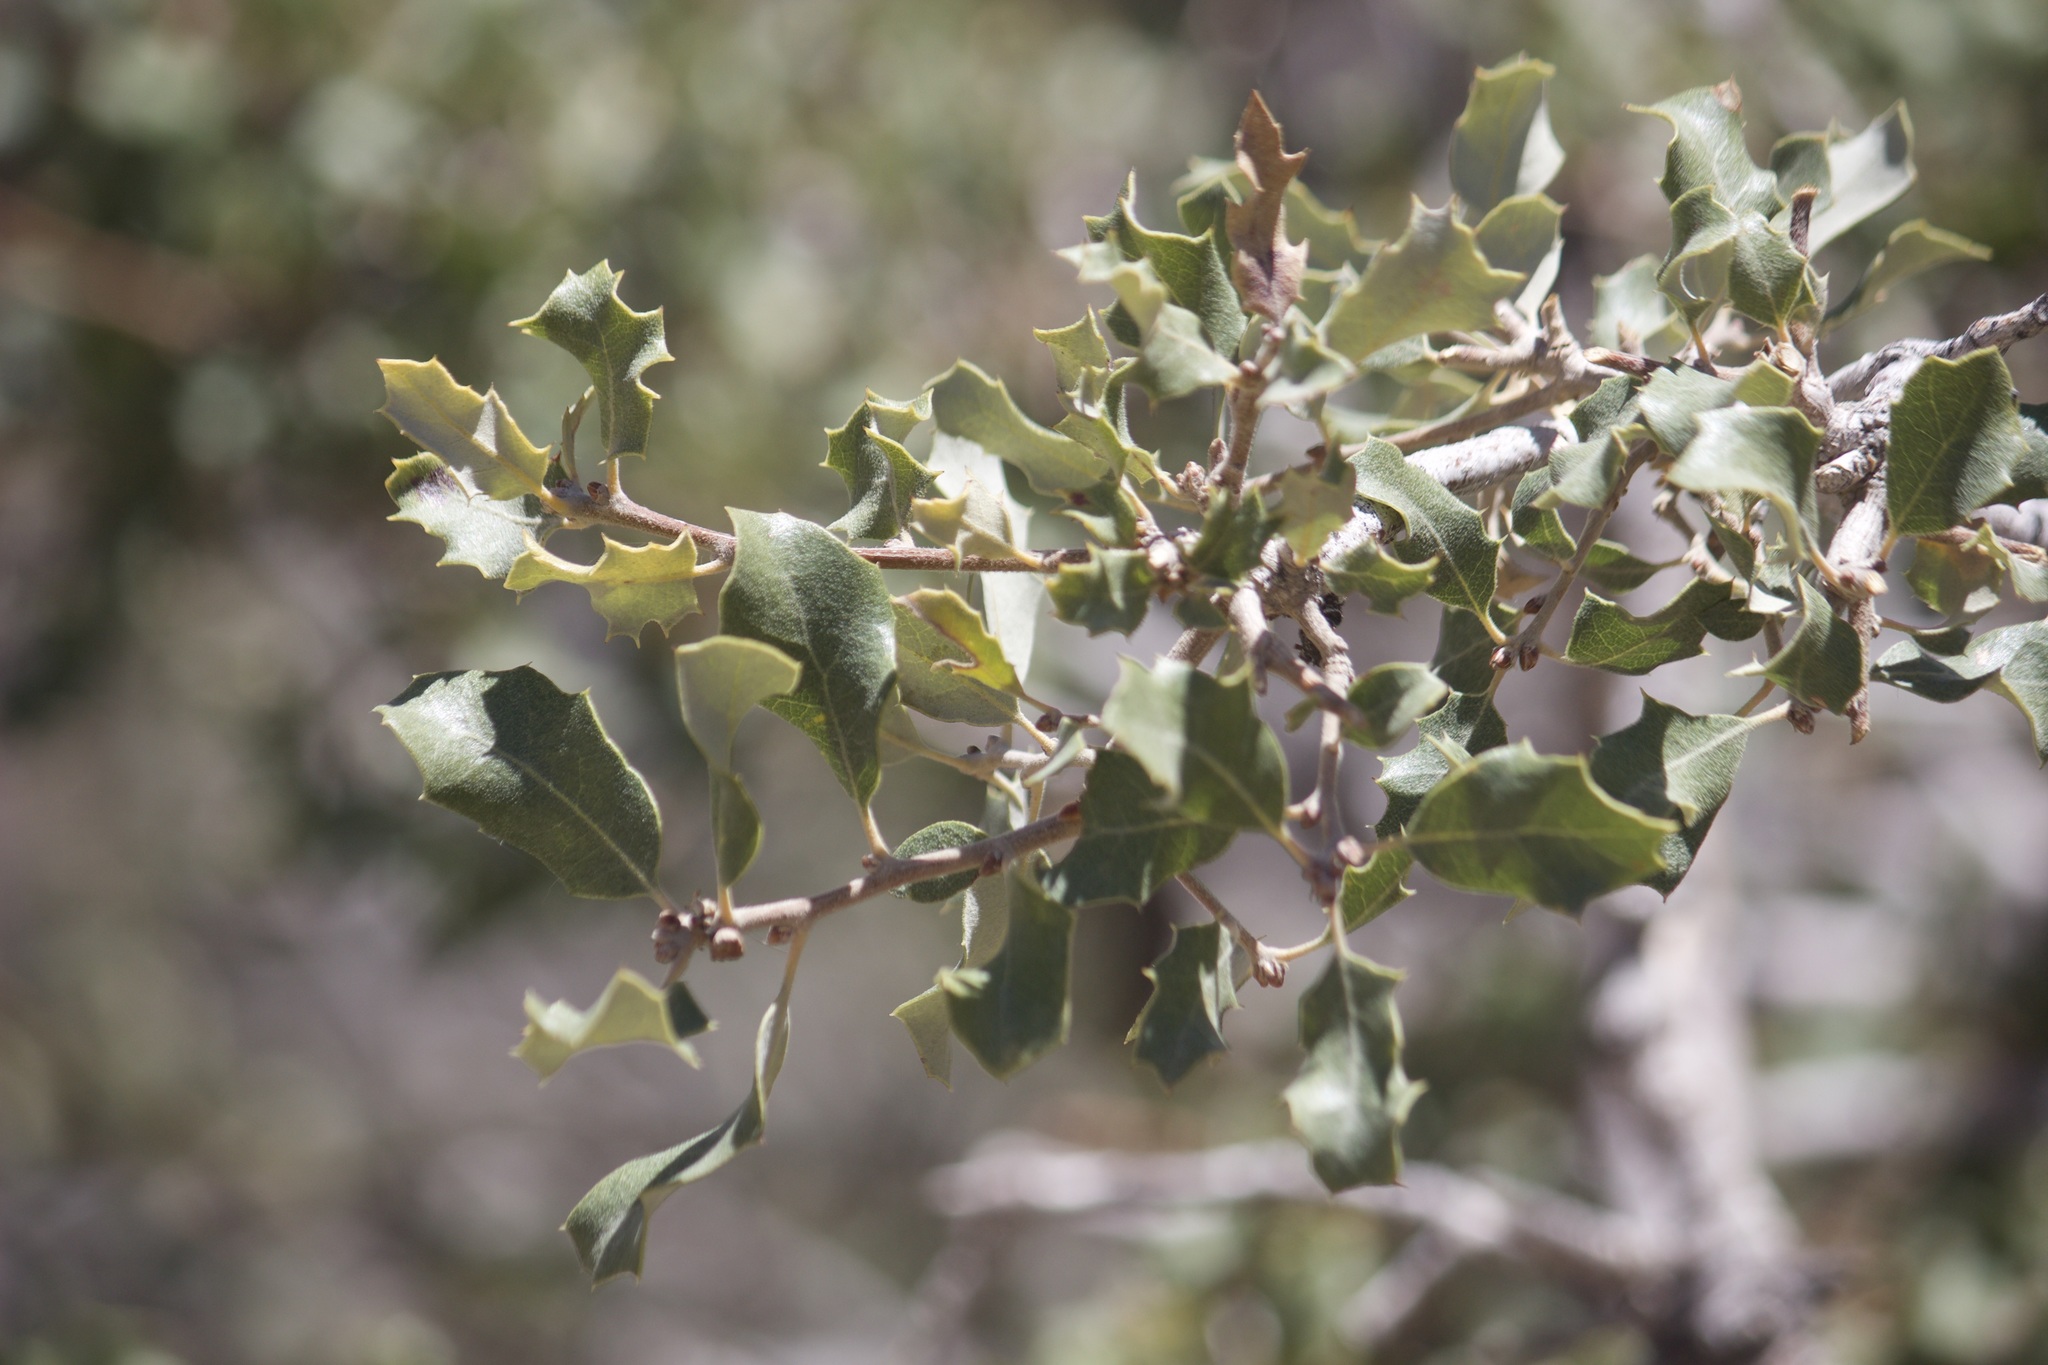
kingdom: Plantae
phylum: Tracheophyta
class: Magnoliopsida
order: Fagales
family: Fagaceae
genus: Quercus
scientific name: Quercus cornelius-mulleri
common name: Muller oak
